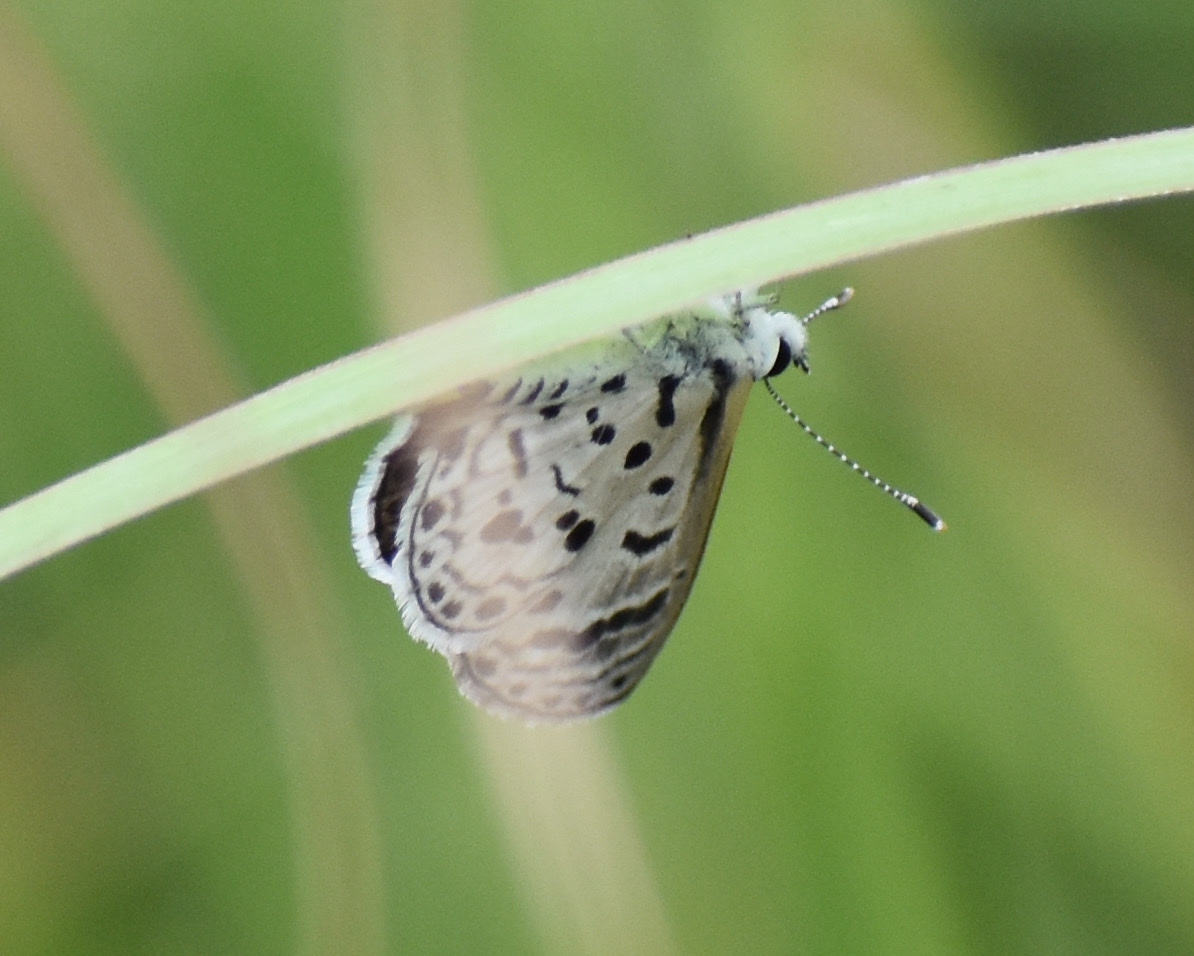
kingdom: Animalia
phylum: Arthropoda
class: Insecta
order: Lepidoptera
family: Lycaenidae
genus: Azanus
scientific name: Azanus moriqua
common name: Thorn-tree babul blue
